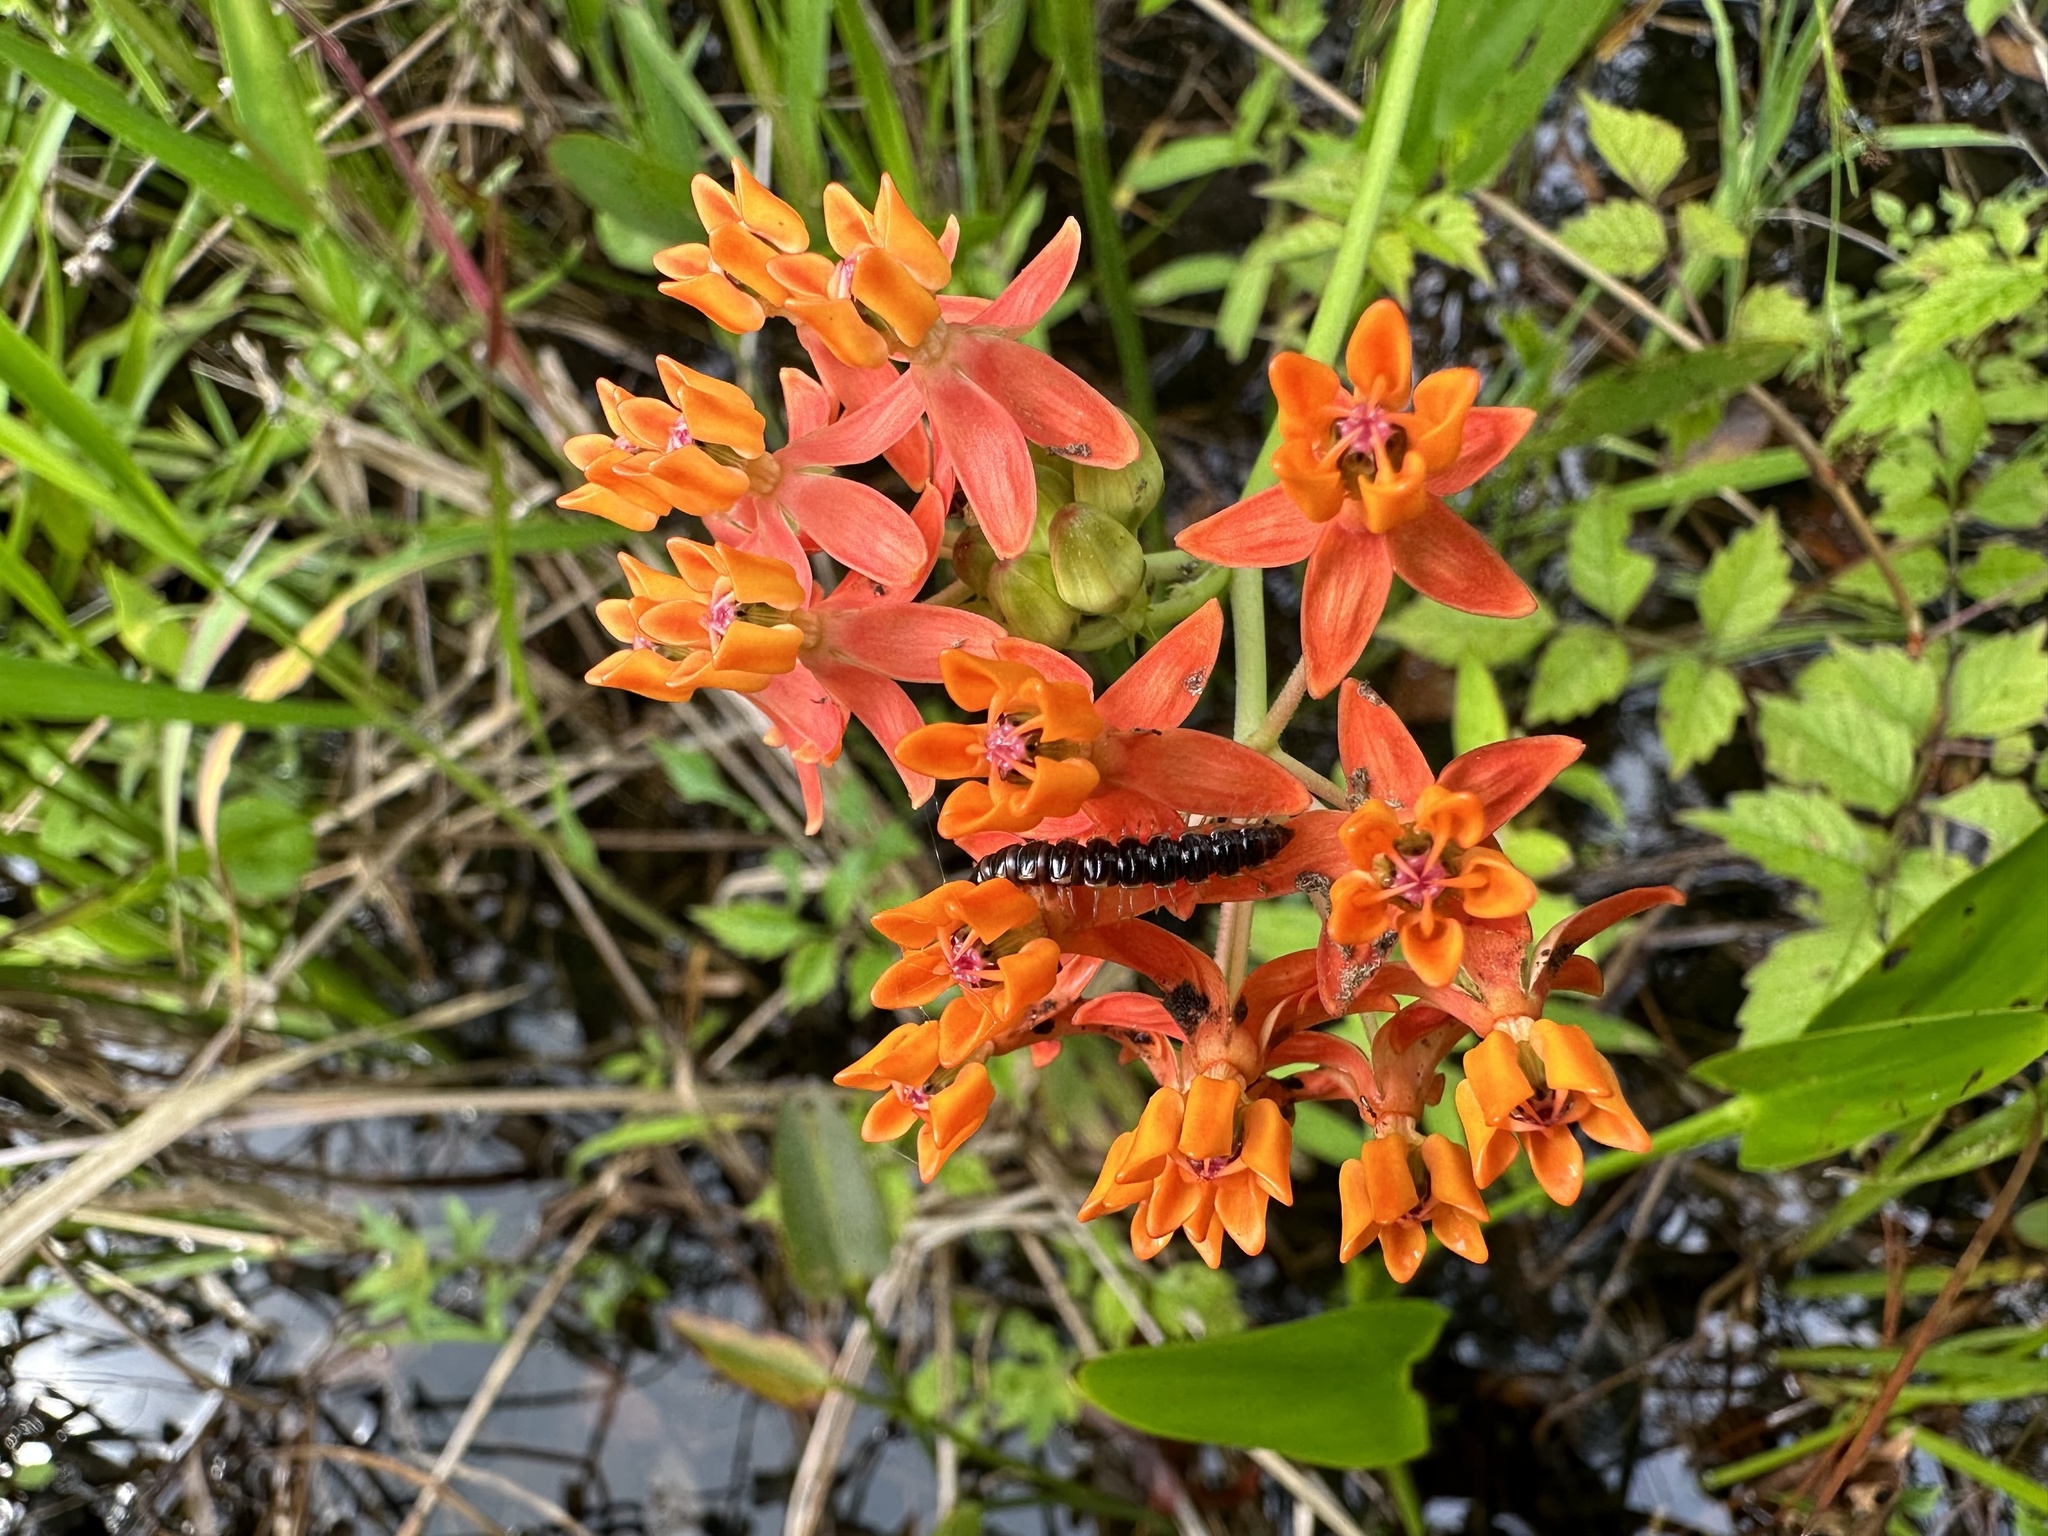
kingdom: Plantae
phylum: Tracheophyta
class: Magnoliopsida
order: Gentianales
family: Apocynaceae
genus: Asclepias
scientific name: Asclepias lanceolata
